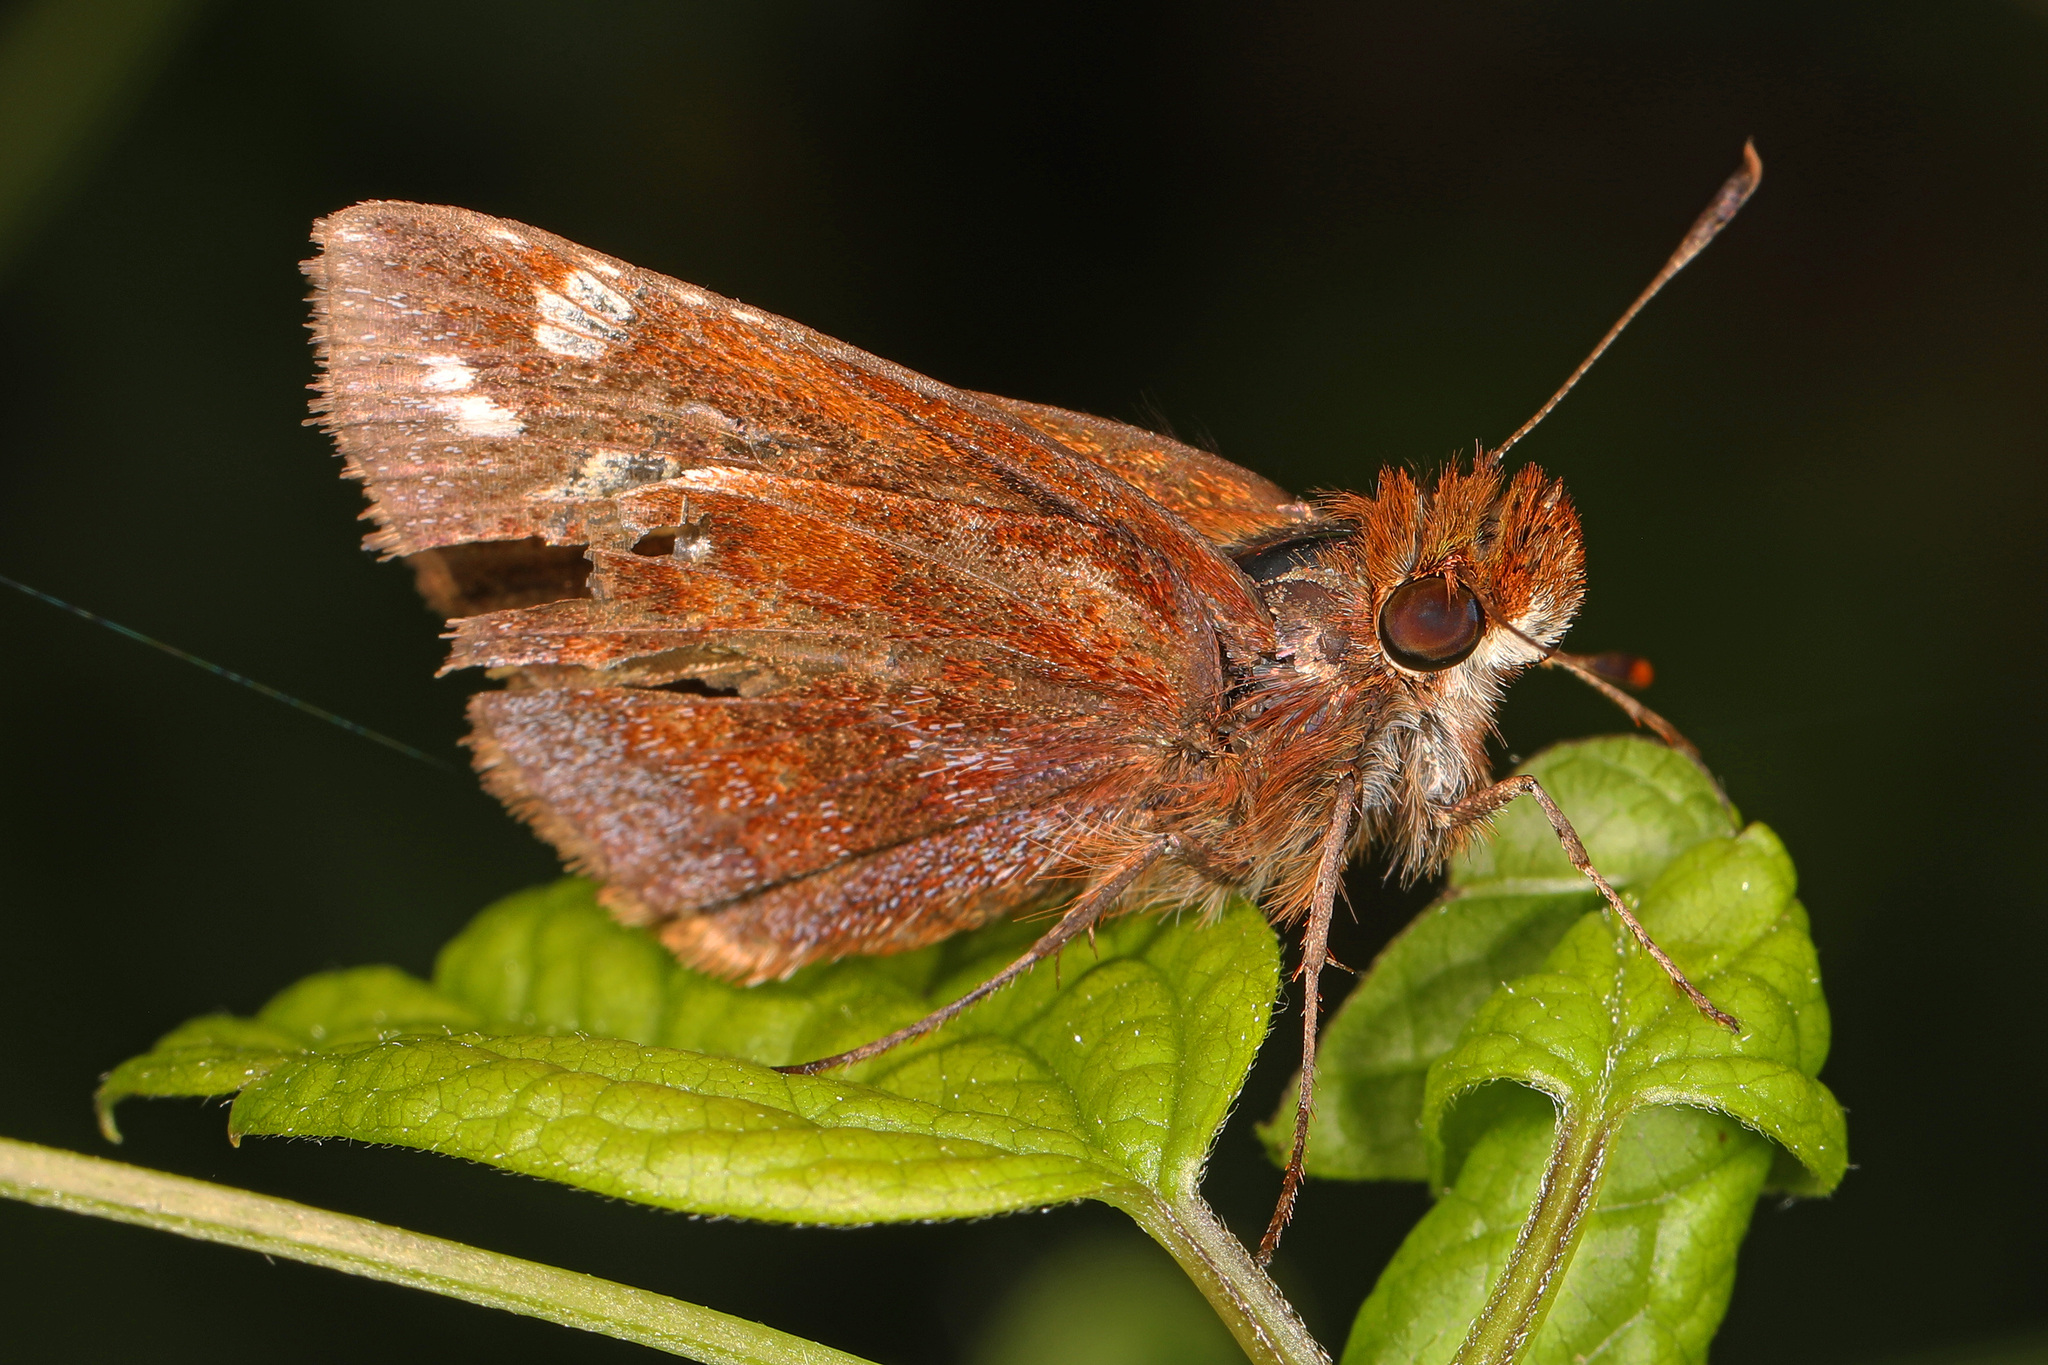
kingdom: Animalia
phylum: Arthropoda
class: Insecta
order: Lepidoptera
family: Hesperiidae
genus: Lon
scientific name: Lon zabulon
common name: Zabulon skipper
